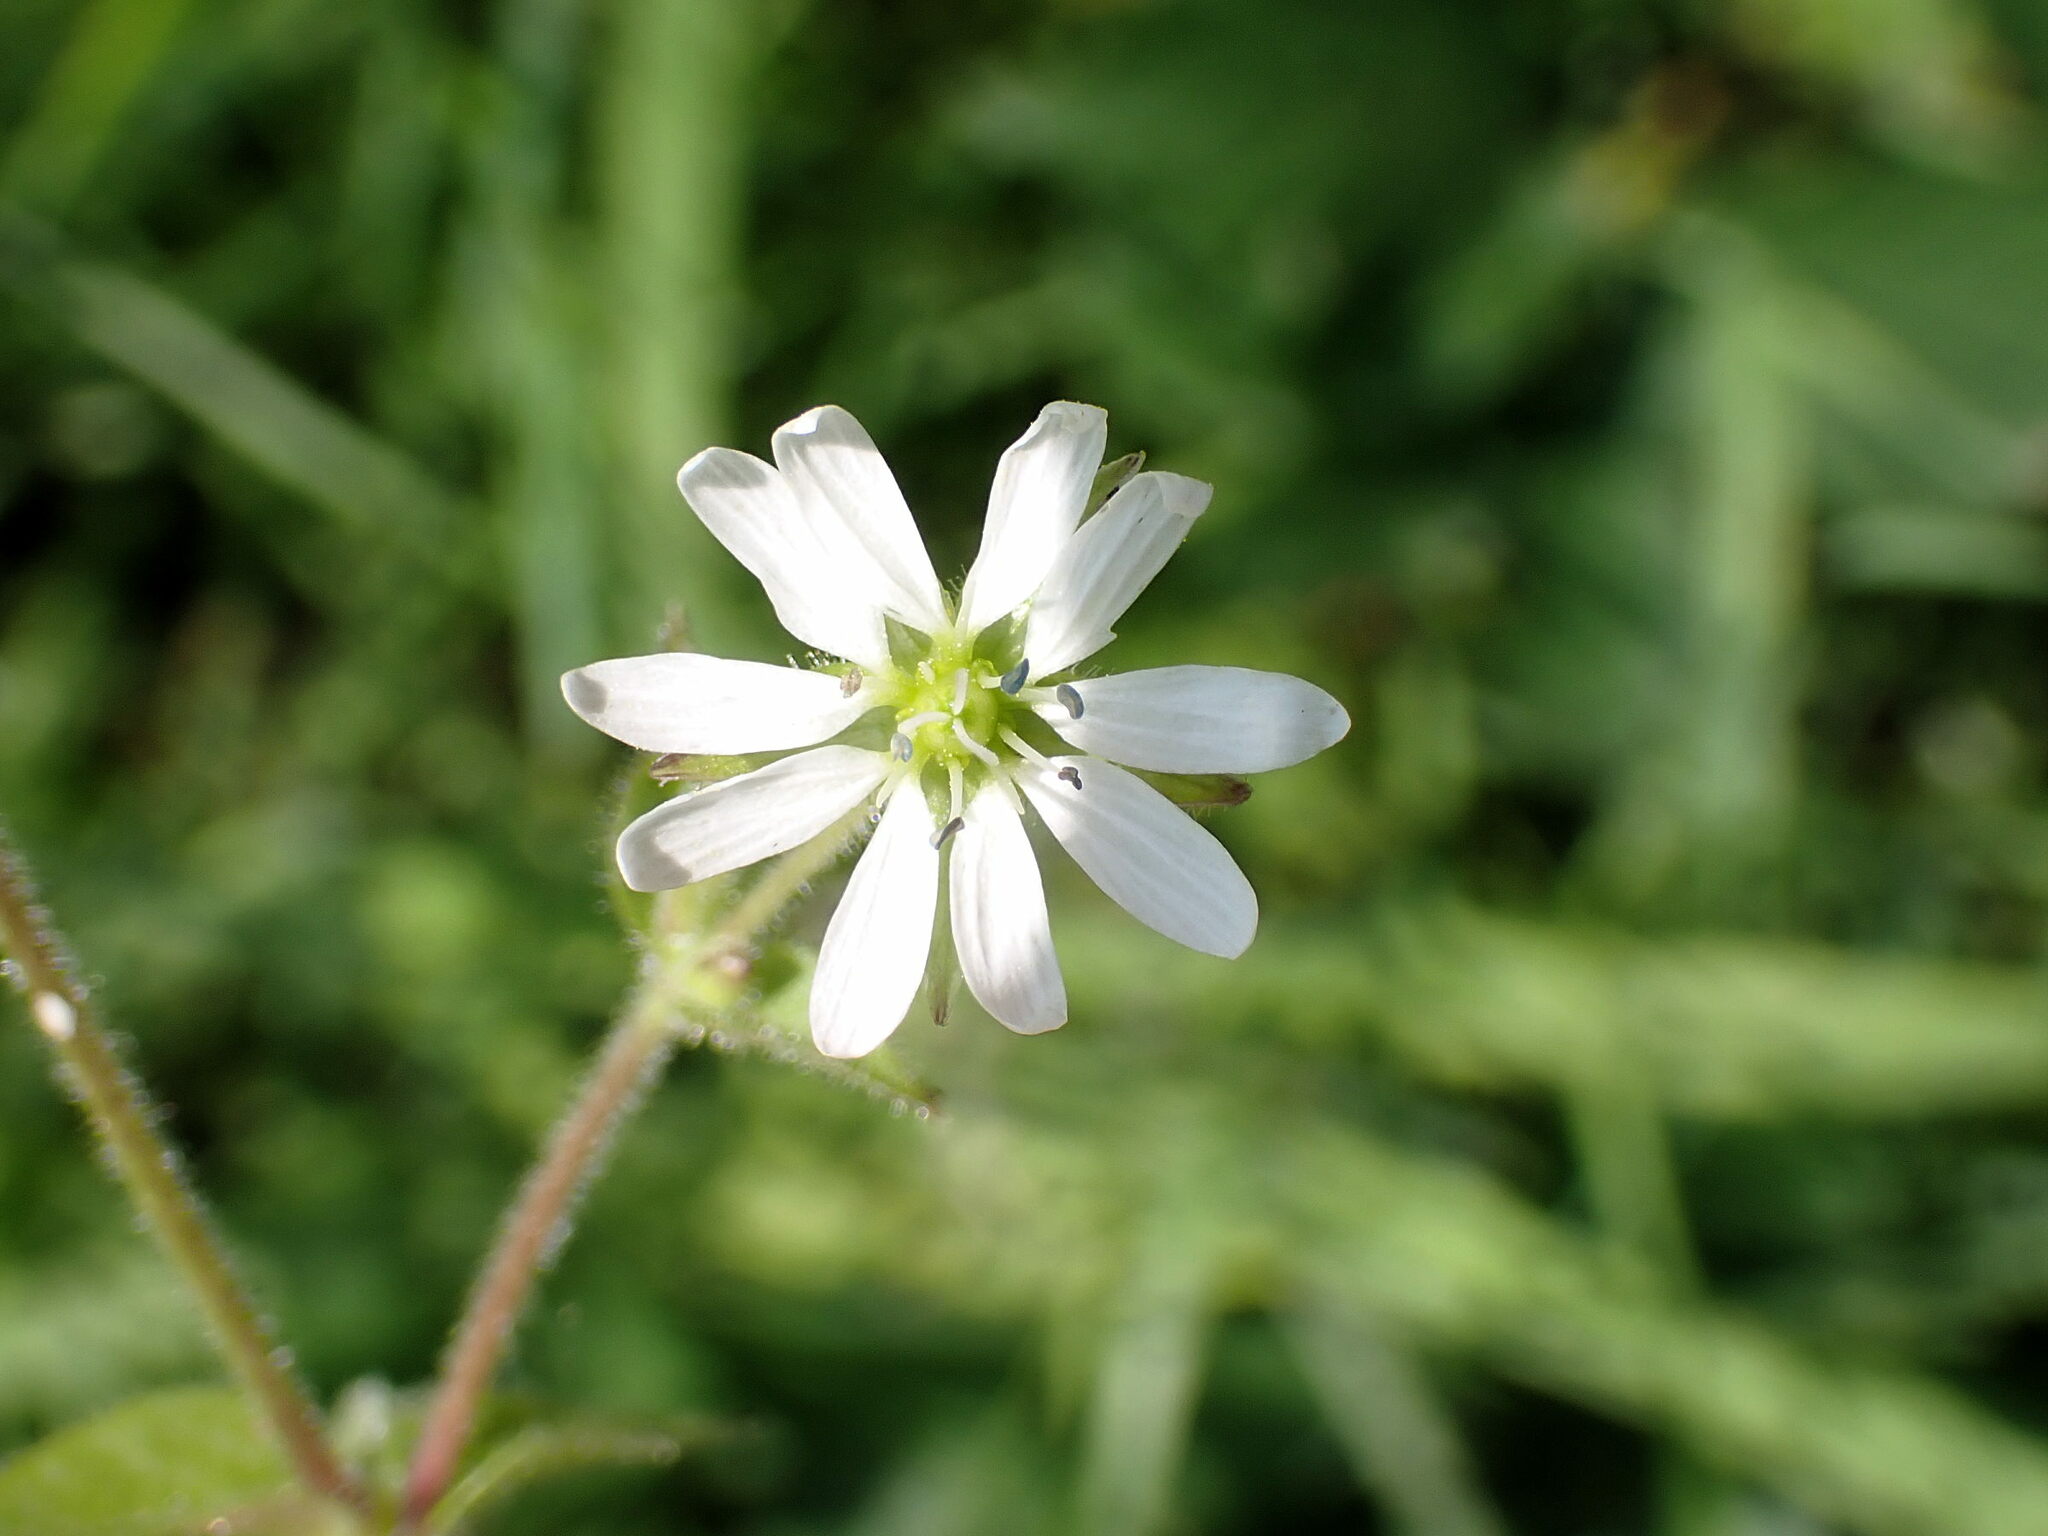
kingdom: Plantae
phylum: Tracheophyta
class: Magnoliopsida
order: Caryophyllales
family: Caryophyllaceae
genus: Stellaria
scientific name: Stellaria aquatica
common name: Water chickweed
